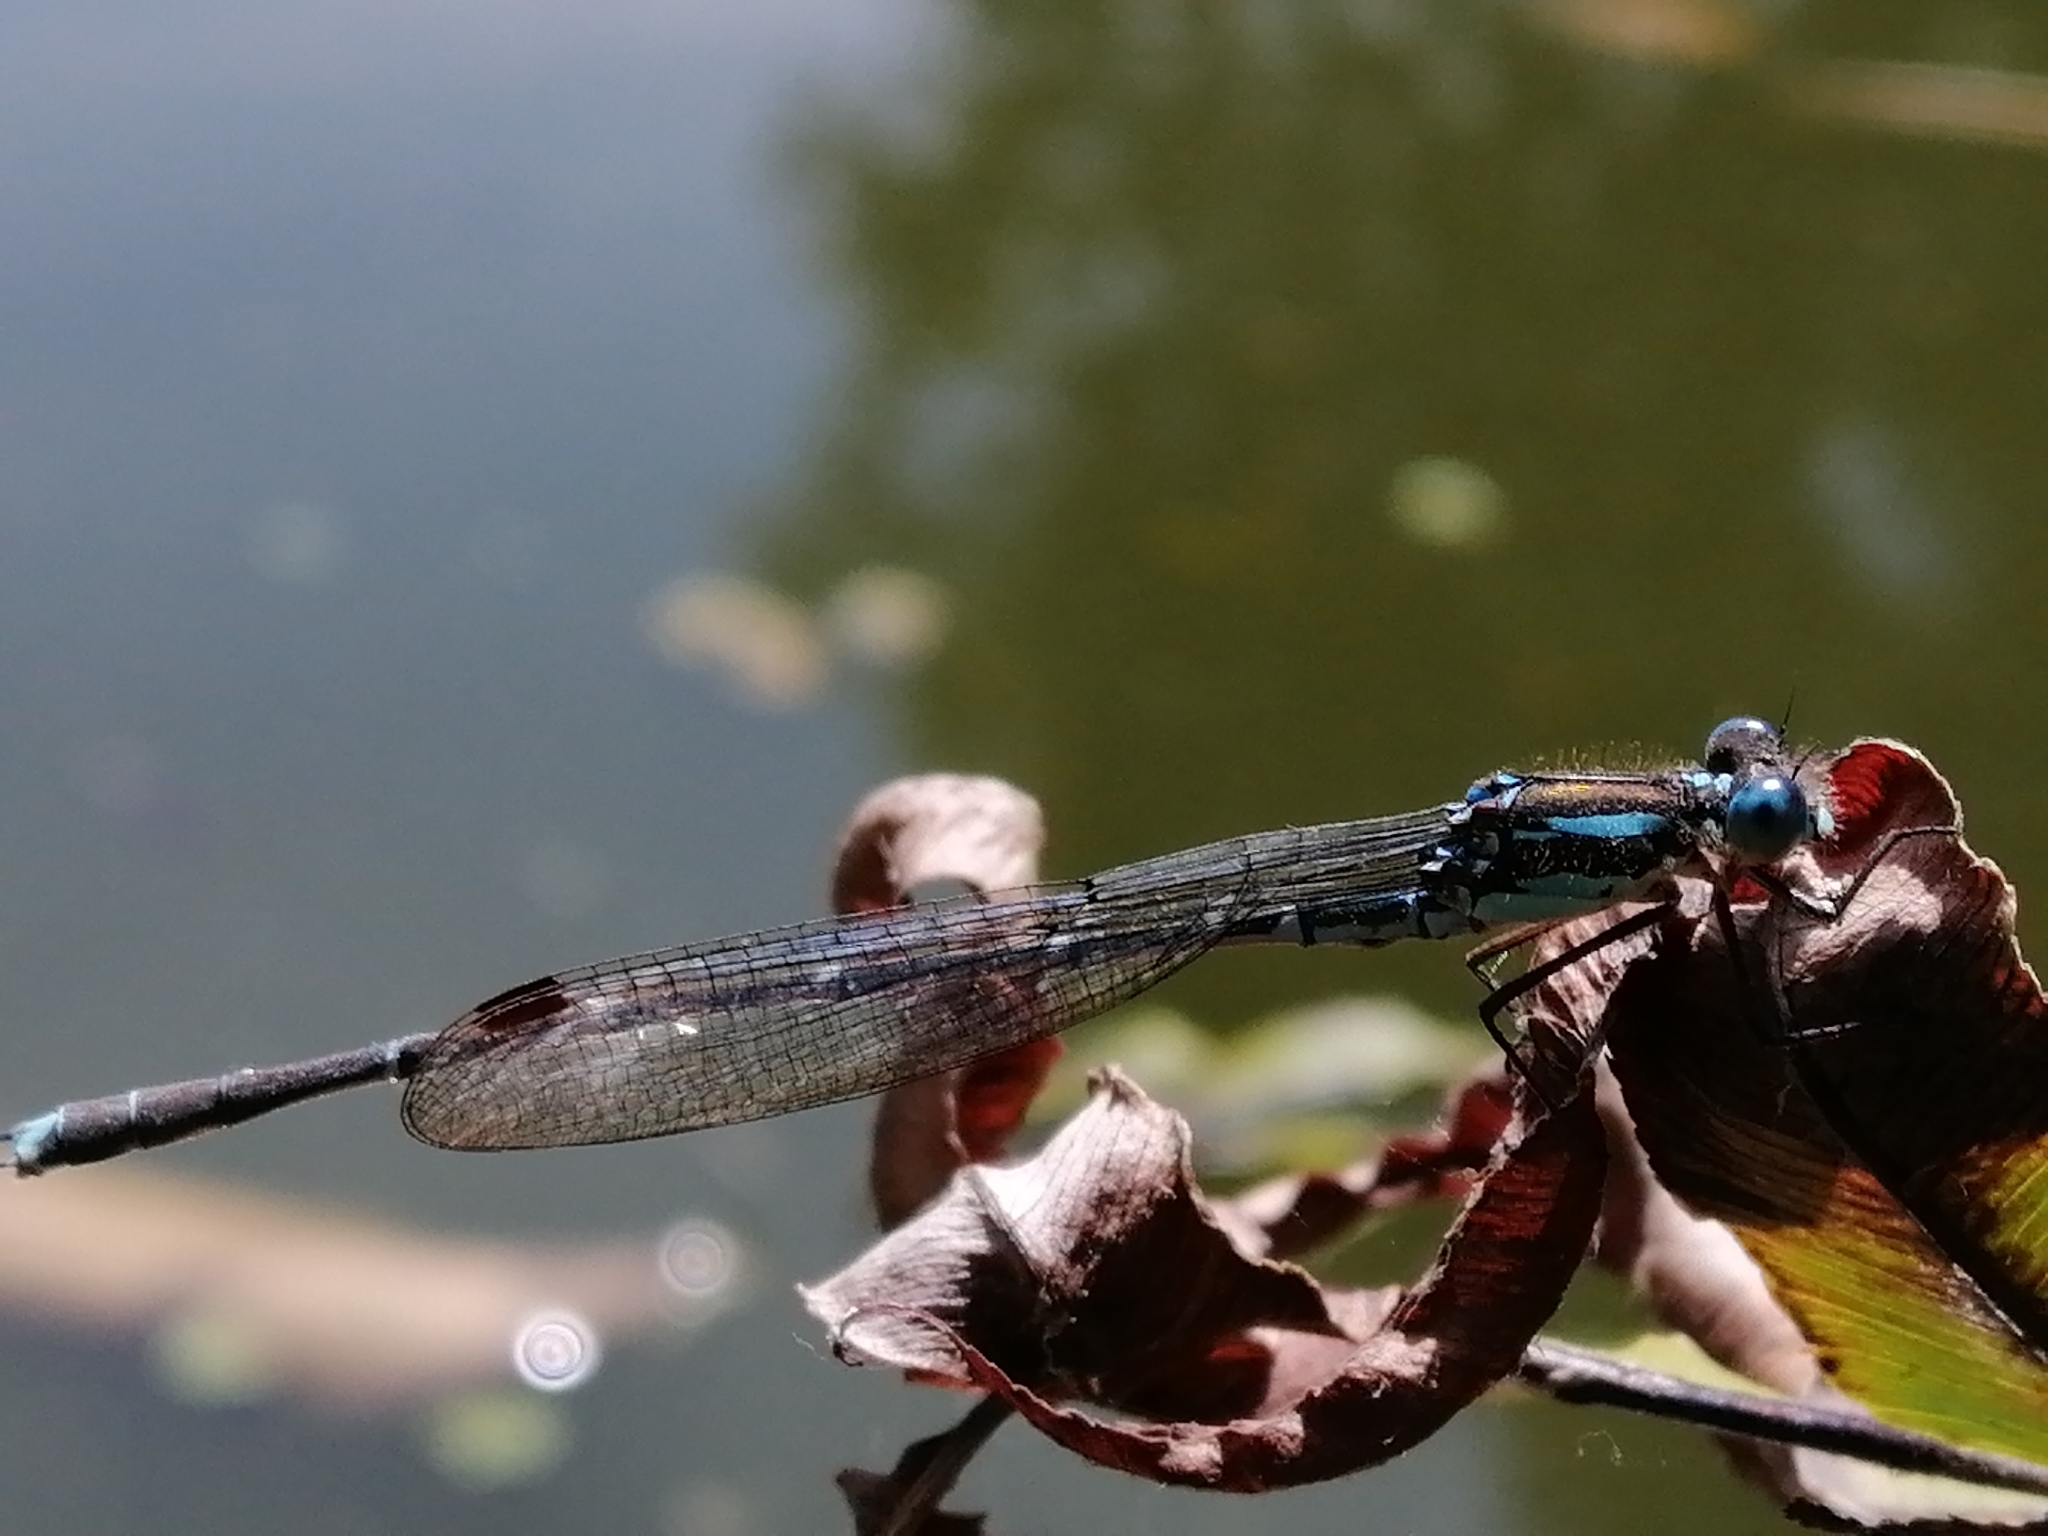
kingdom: Animalia
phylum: Arthropoda
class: Insecta
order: Odonata
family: Lestidae
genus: Austrolestes
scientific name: Austrolestes colensonis
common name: Blue damselfly
